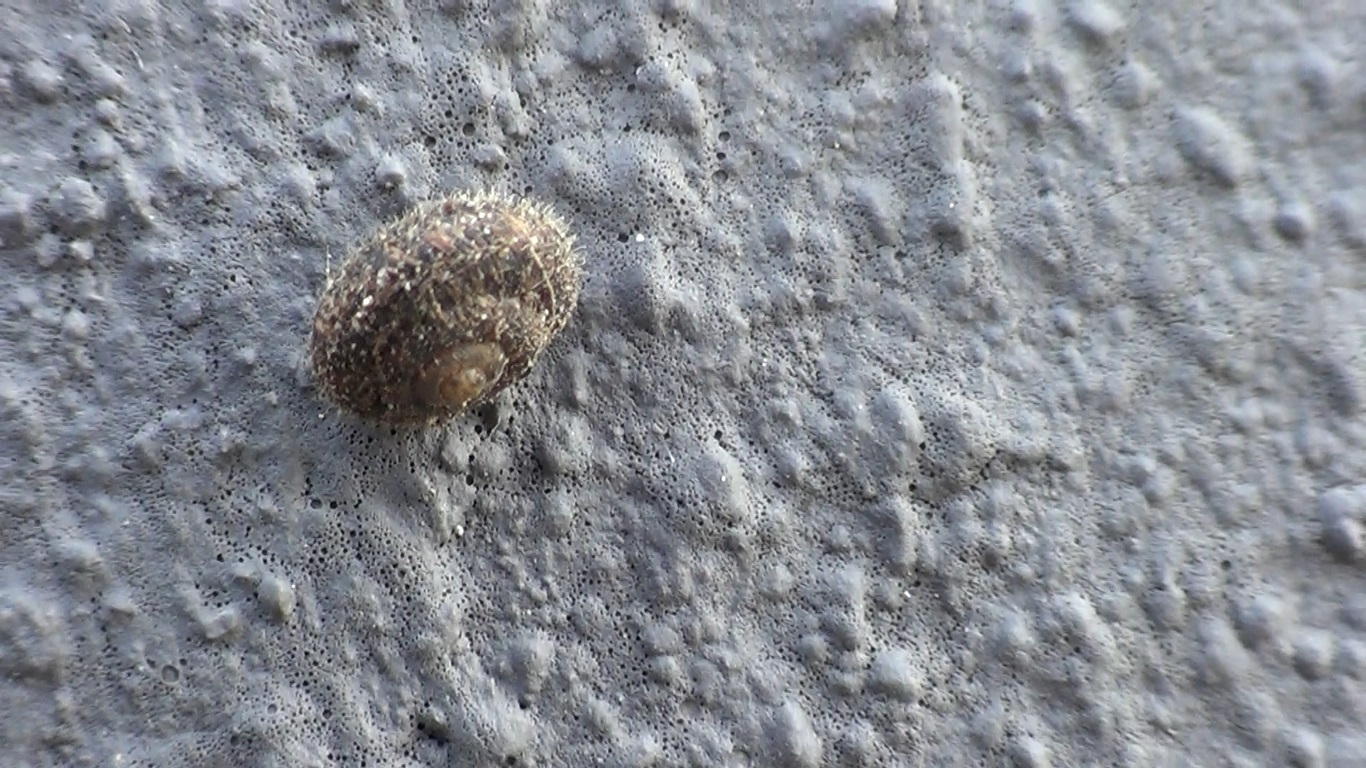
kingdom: Animalia
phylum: Mollusca
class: Gastropoda
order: Stylommatophora
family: Geomitridae
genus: Xerotricha
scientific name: Xerotricha conspurcata
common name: Snail
